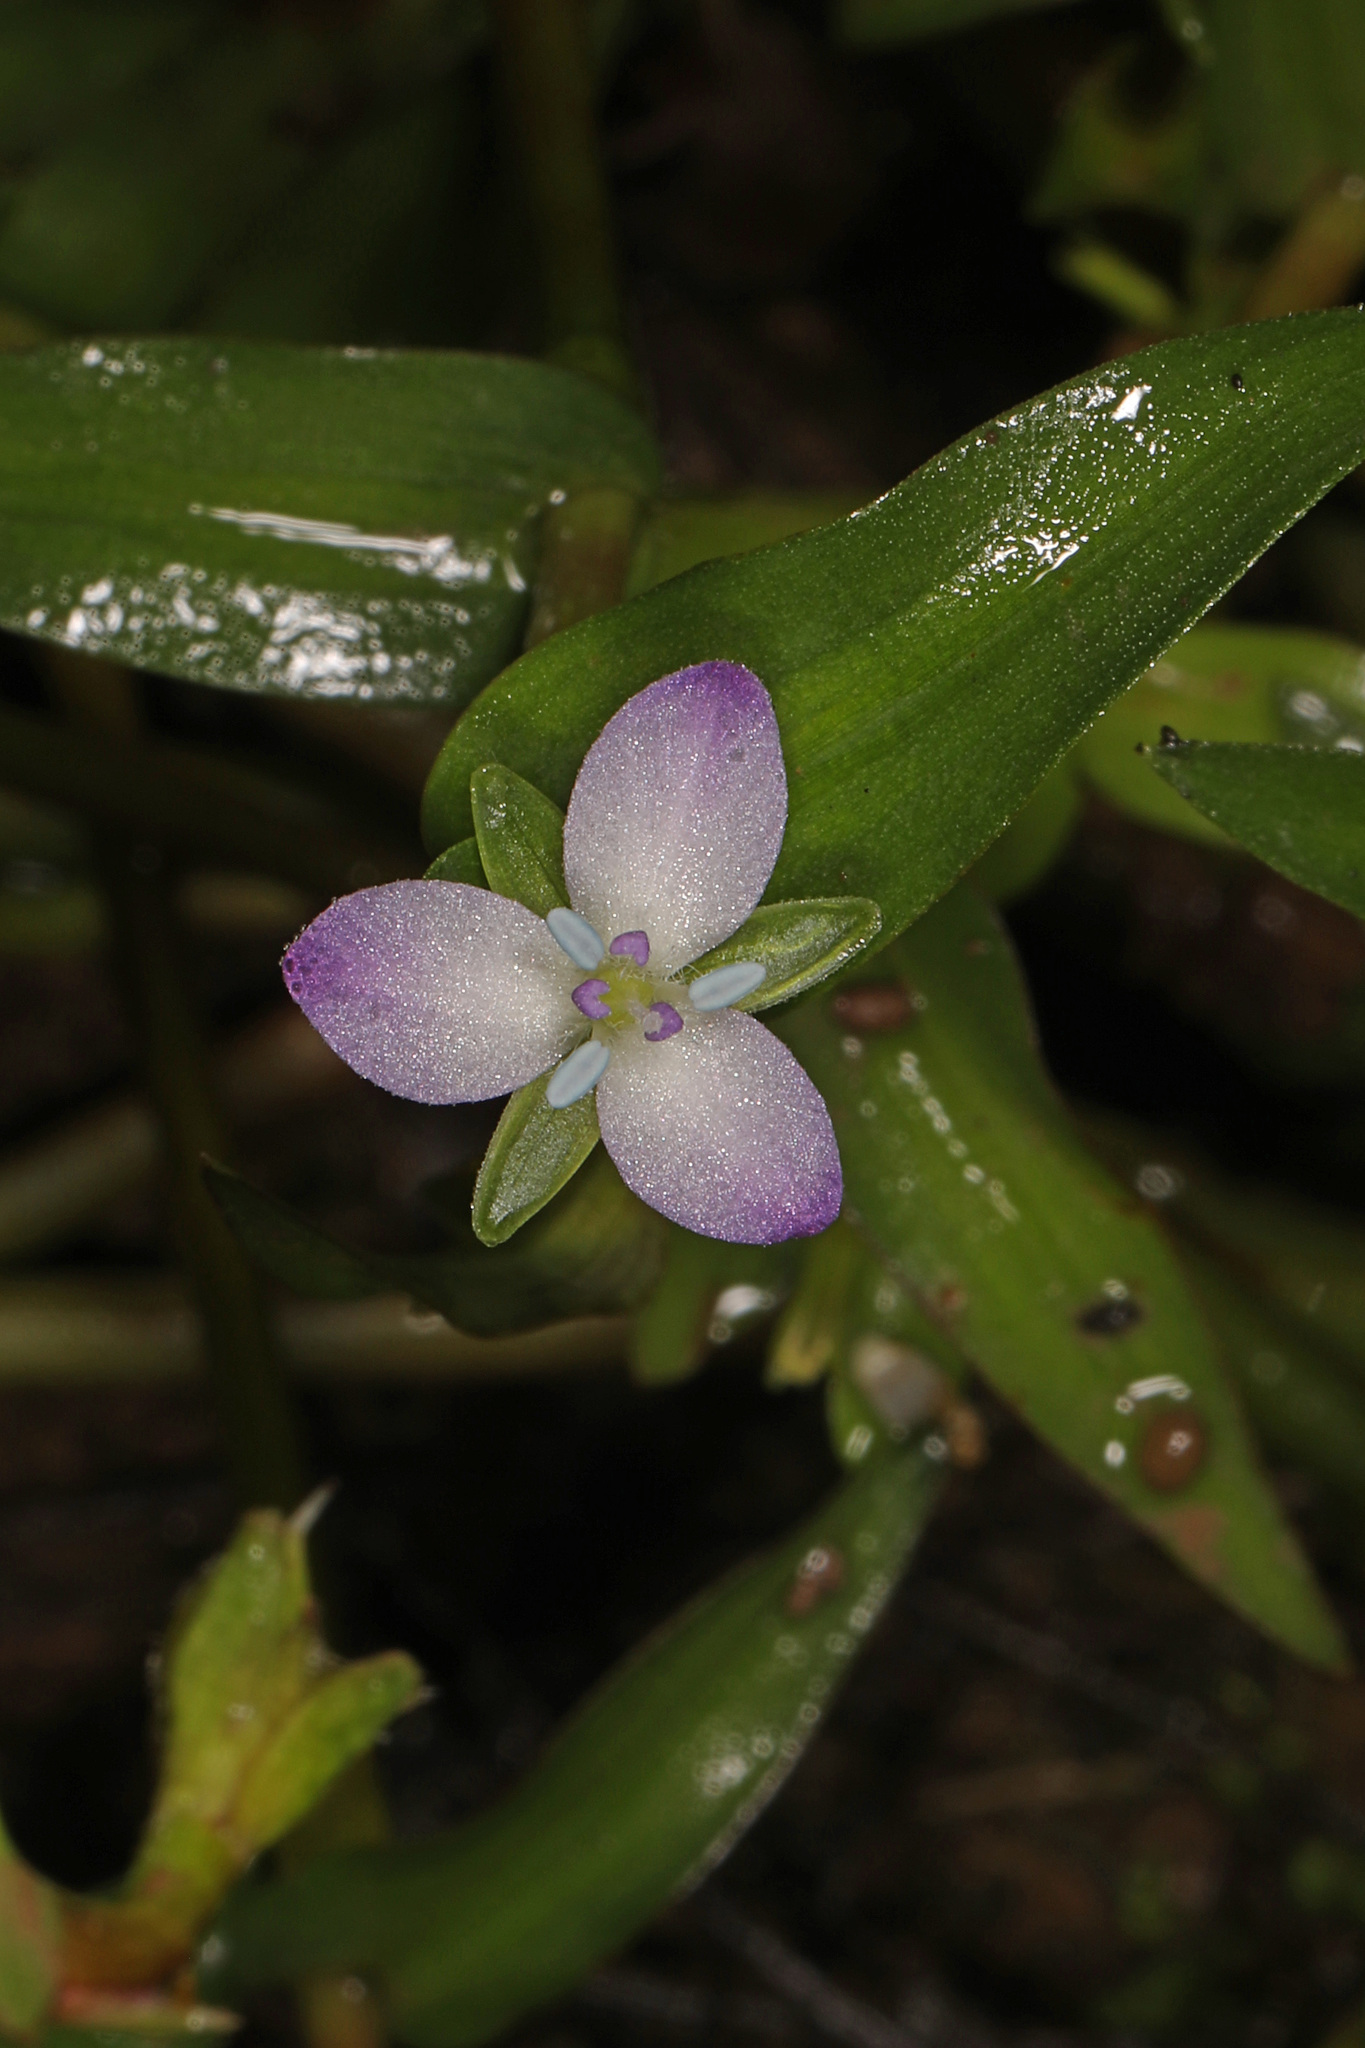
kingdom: Plantae
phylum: Tracheophyta
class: Liliopsida
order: Commelinales
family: Commelinaceae
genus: Murdannia
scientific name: Murdannia keisak
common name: Wartremoving herb
